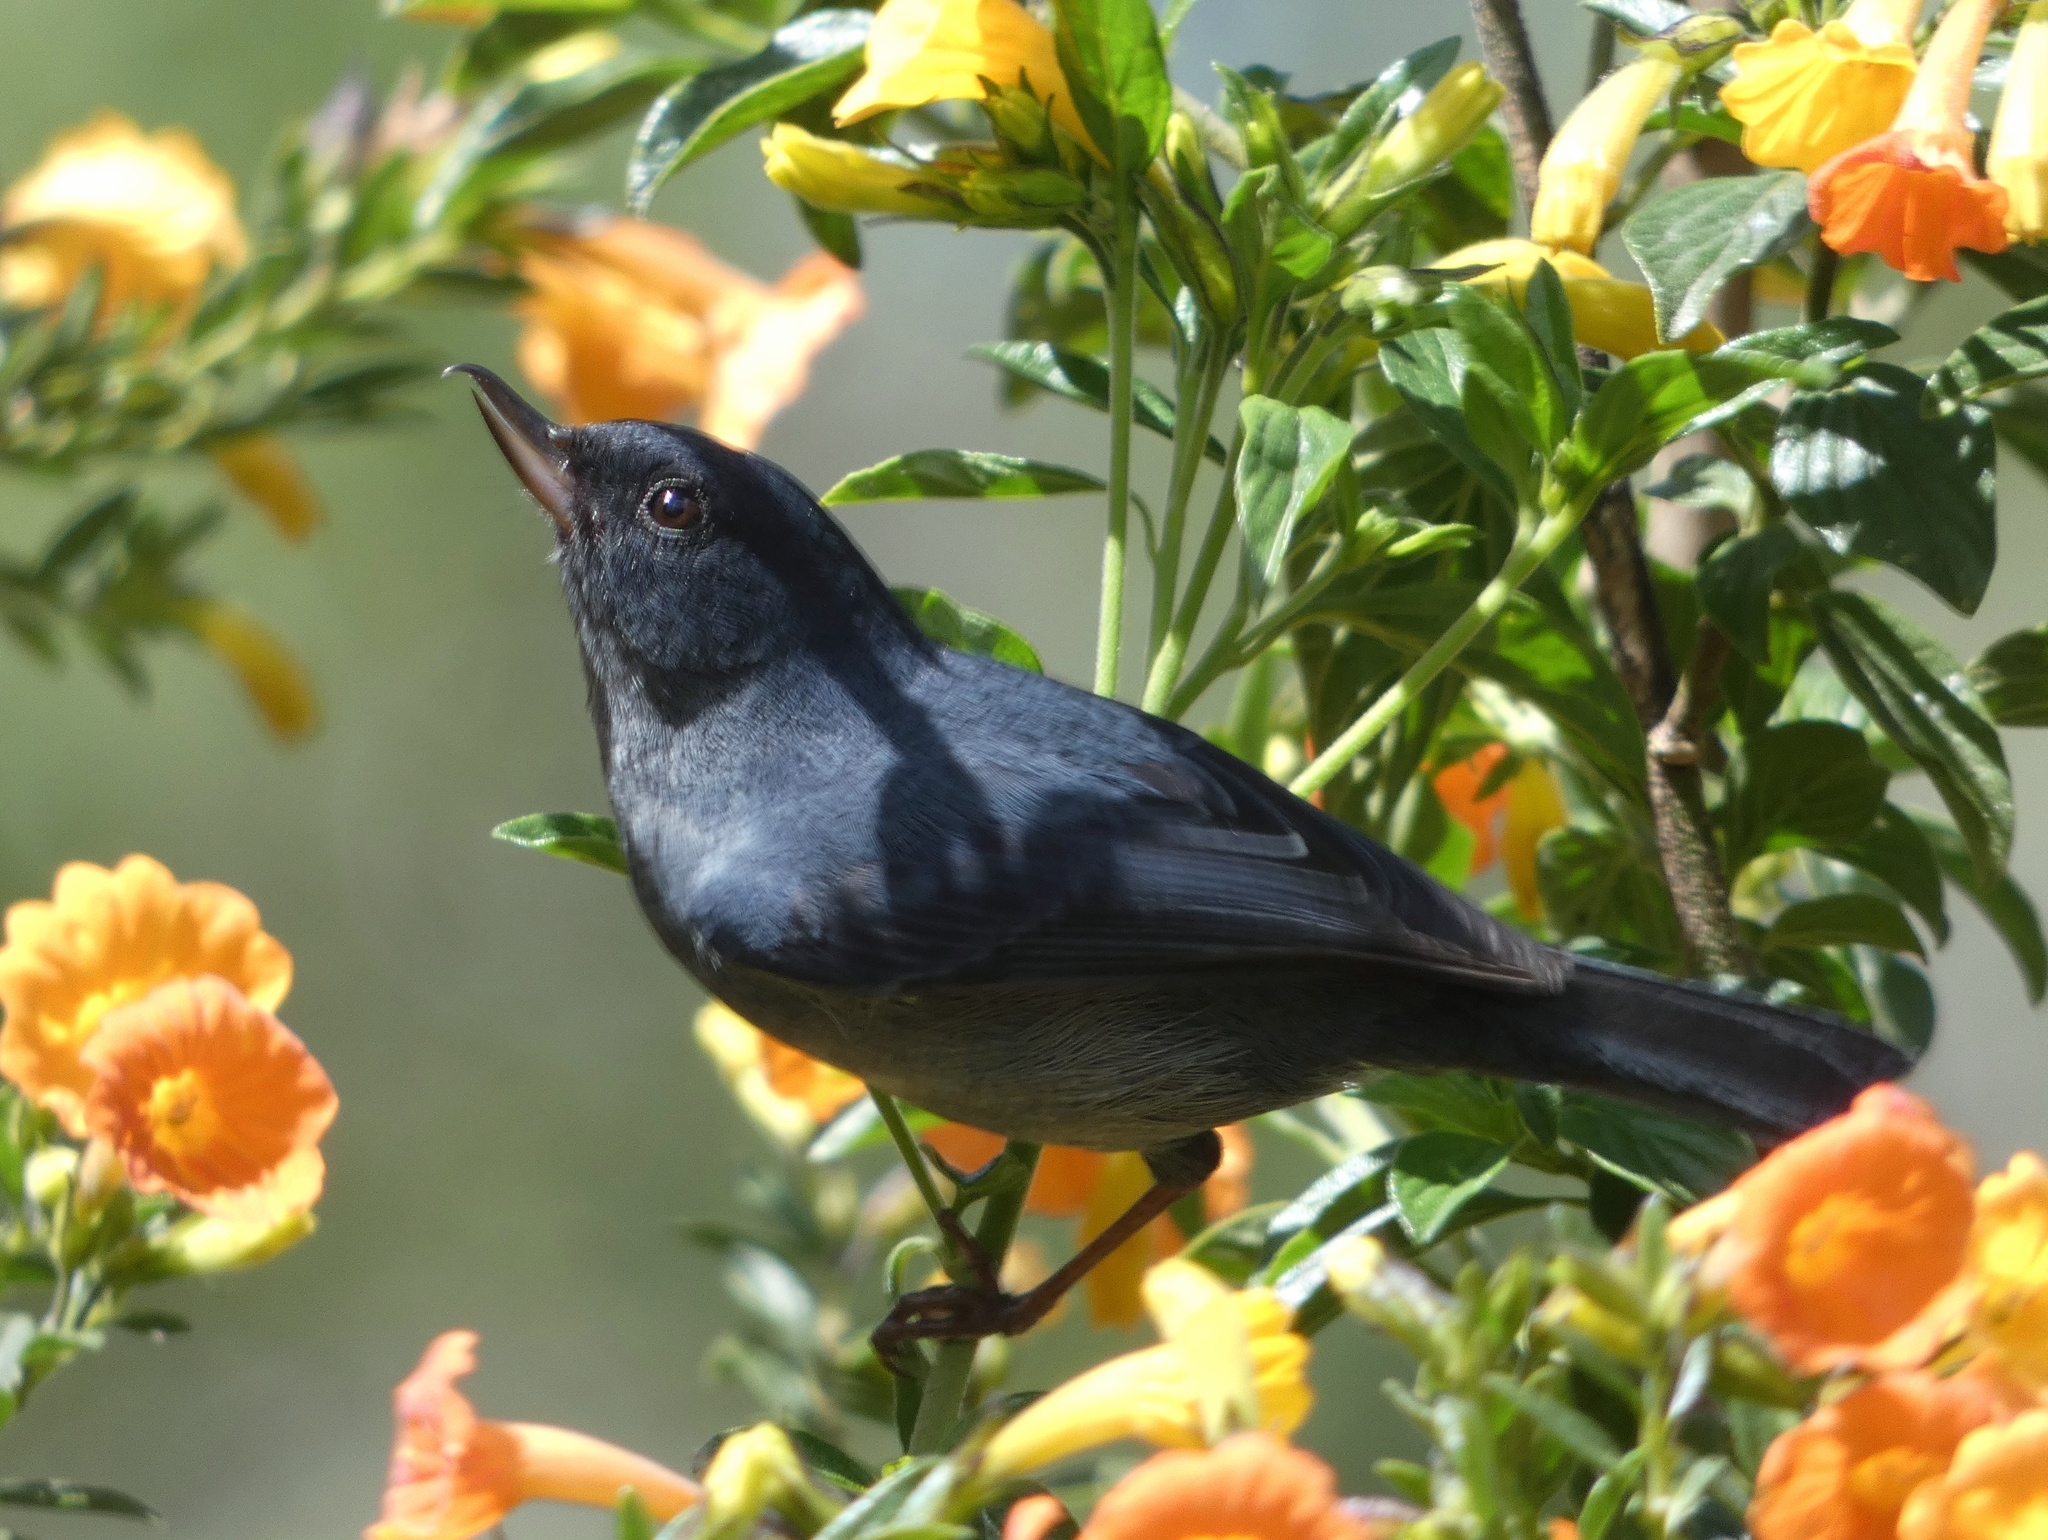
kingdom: Animalia
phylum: Chordata
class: Aves
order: Passeriformes
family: Thraupidae
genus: Diglossa
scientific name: Diglossa plumbea
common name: Slaty flowerpiercer
